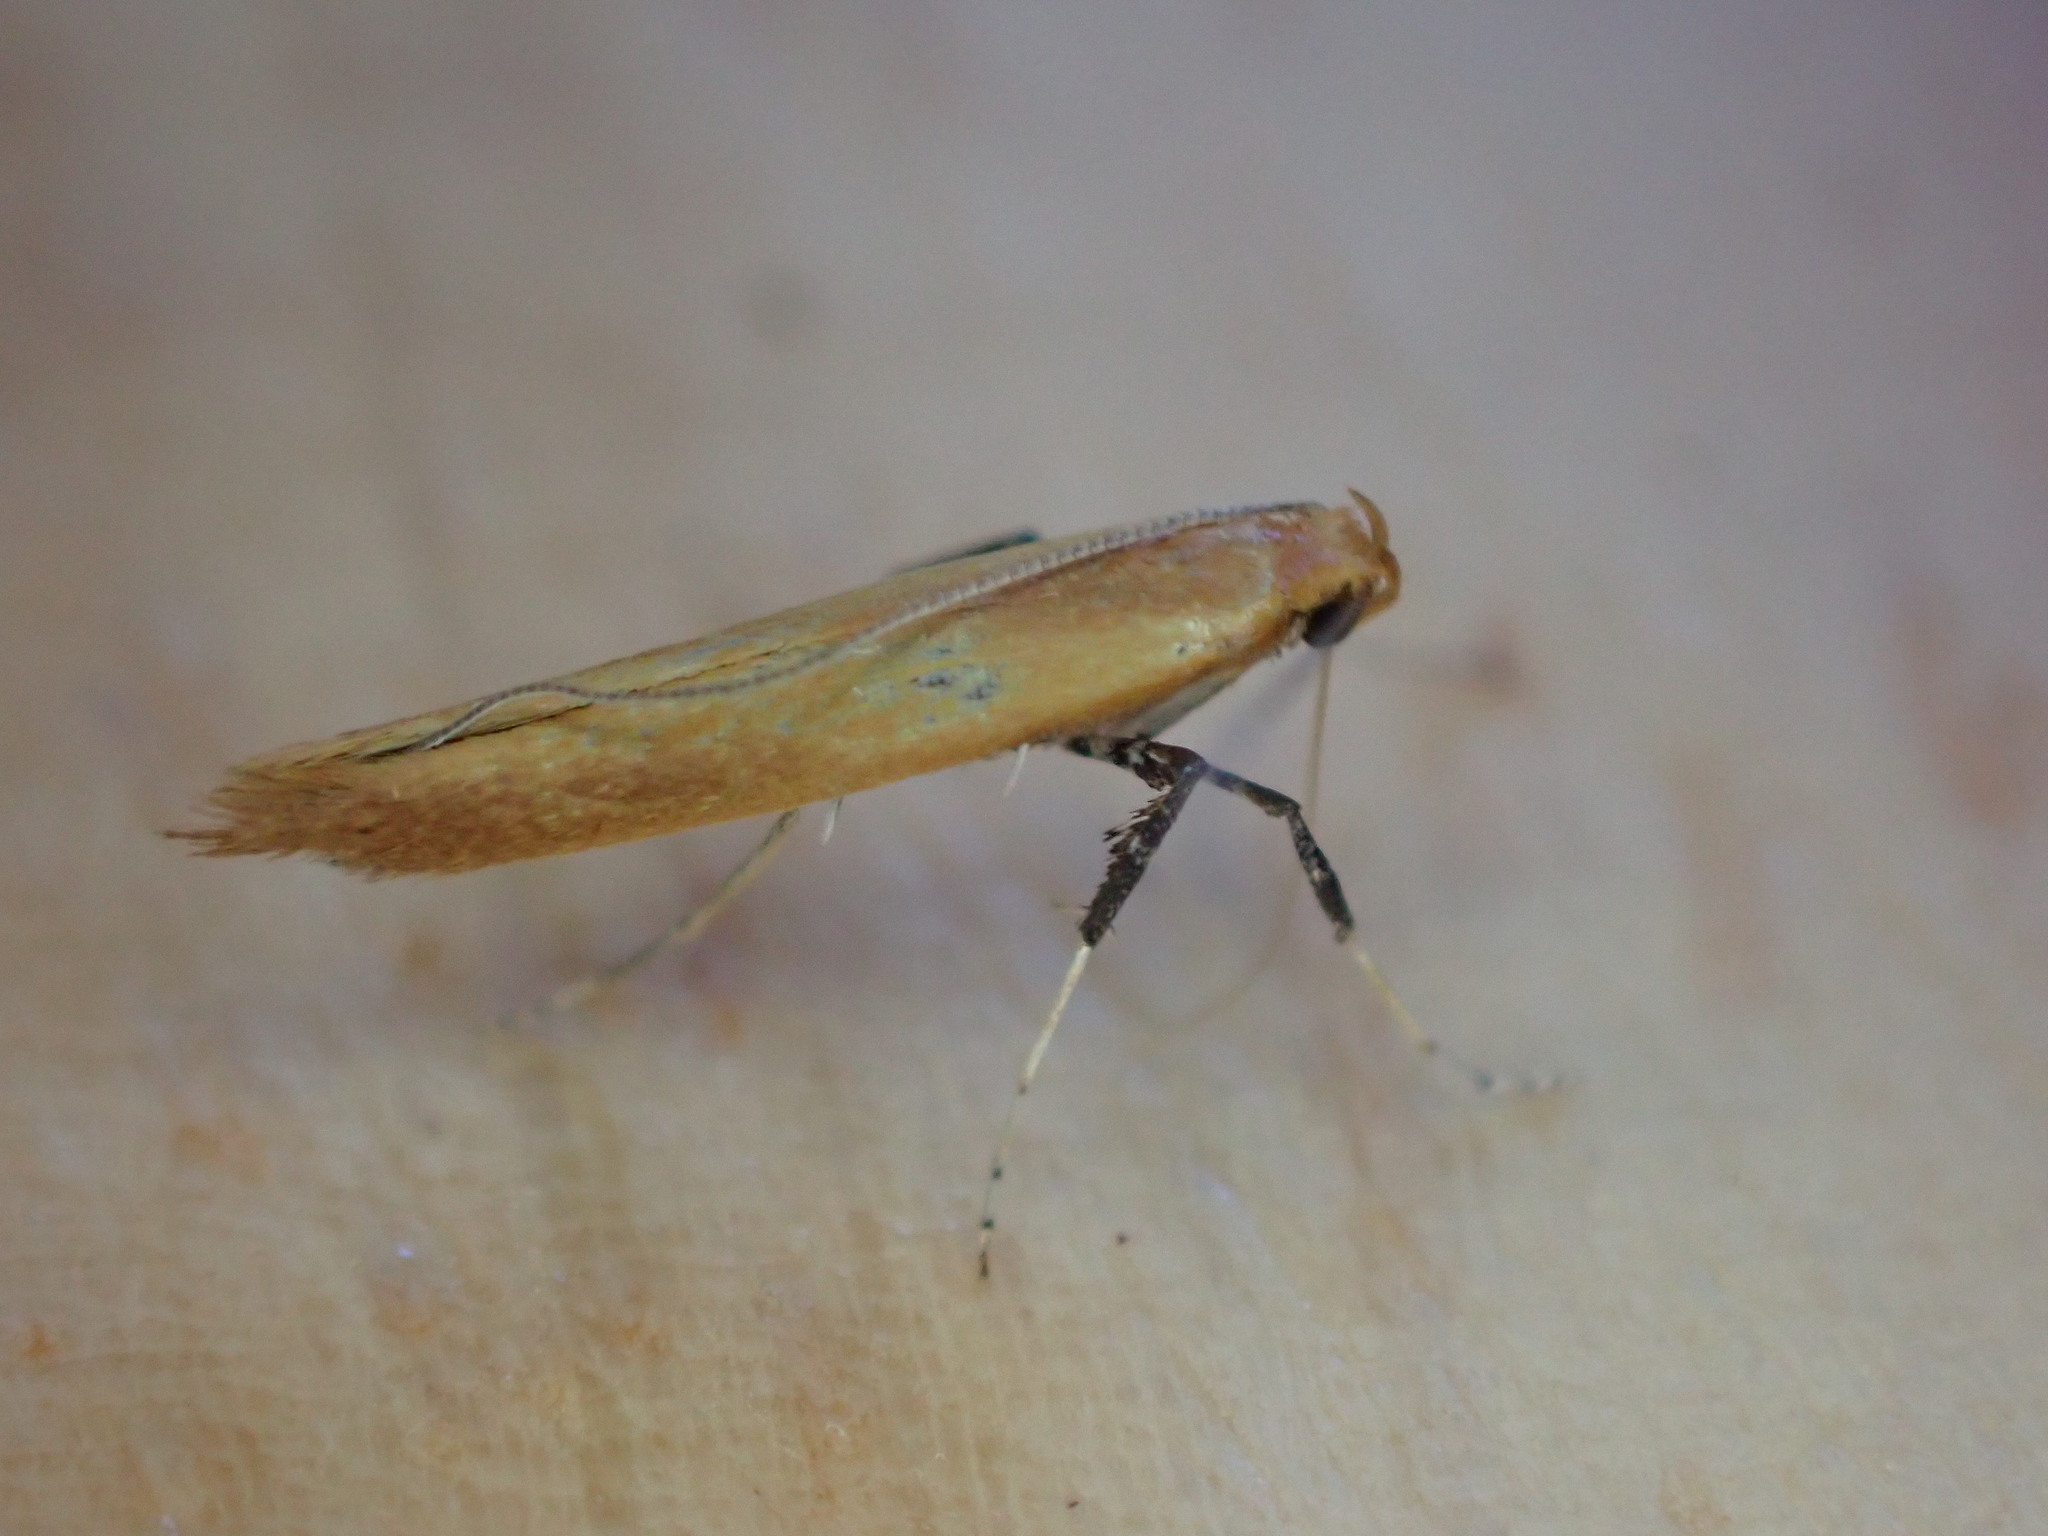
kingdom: Animalia
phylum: Arthropoda
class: Insecta
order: Lepidoptera
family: Gracillariidae
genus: Caloptilia
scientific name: Caloptilia elongella
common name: Pale red slender
